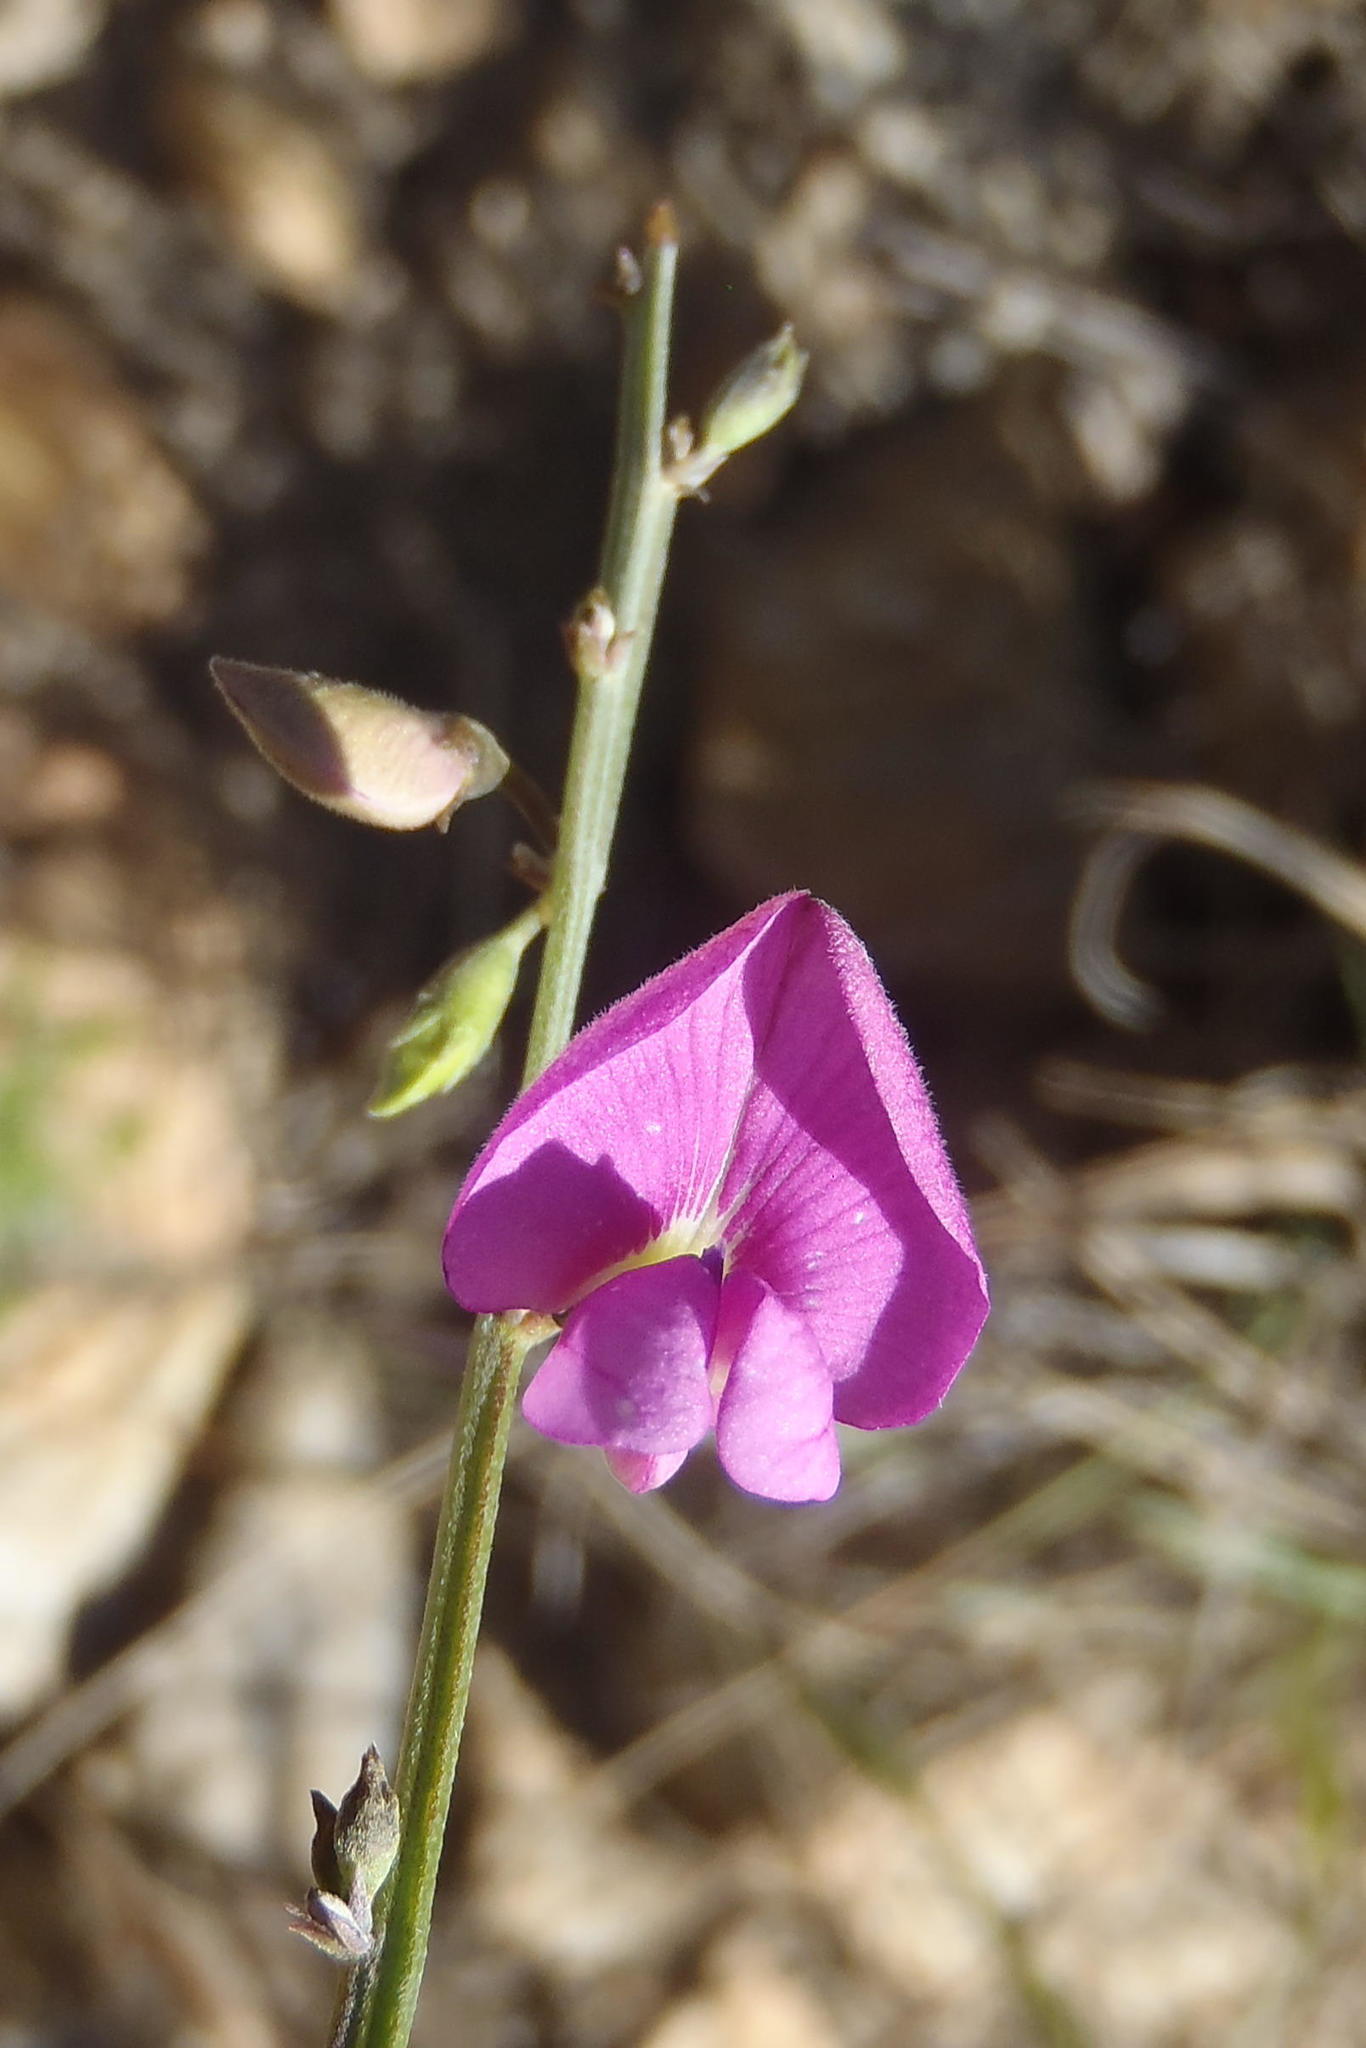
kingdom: Plantae
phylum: Tracheophyta
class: Magnoliopsida
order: Fabales
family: Fabaceae
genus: Tephrosia
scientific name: Tephrosia capensis
